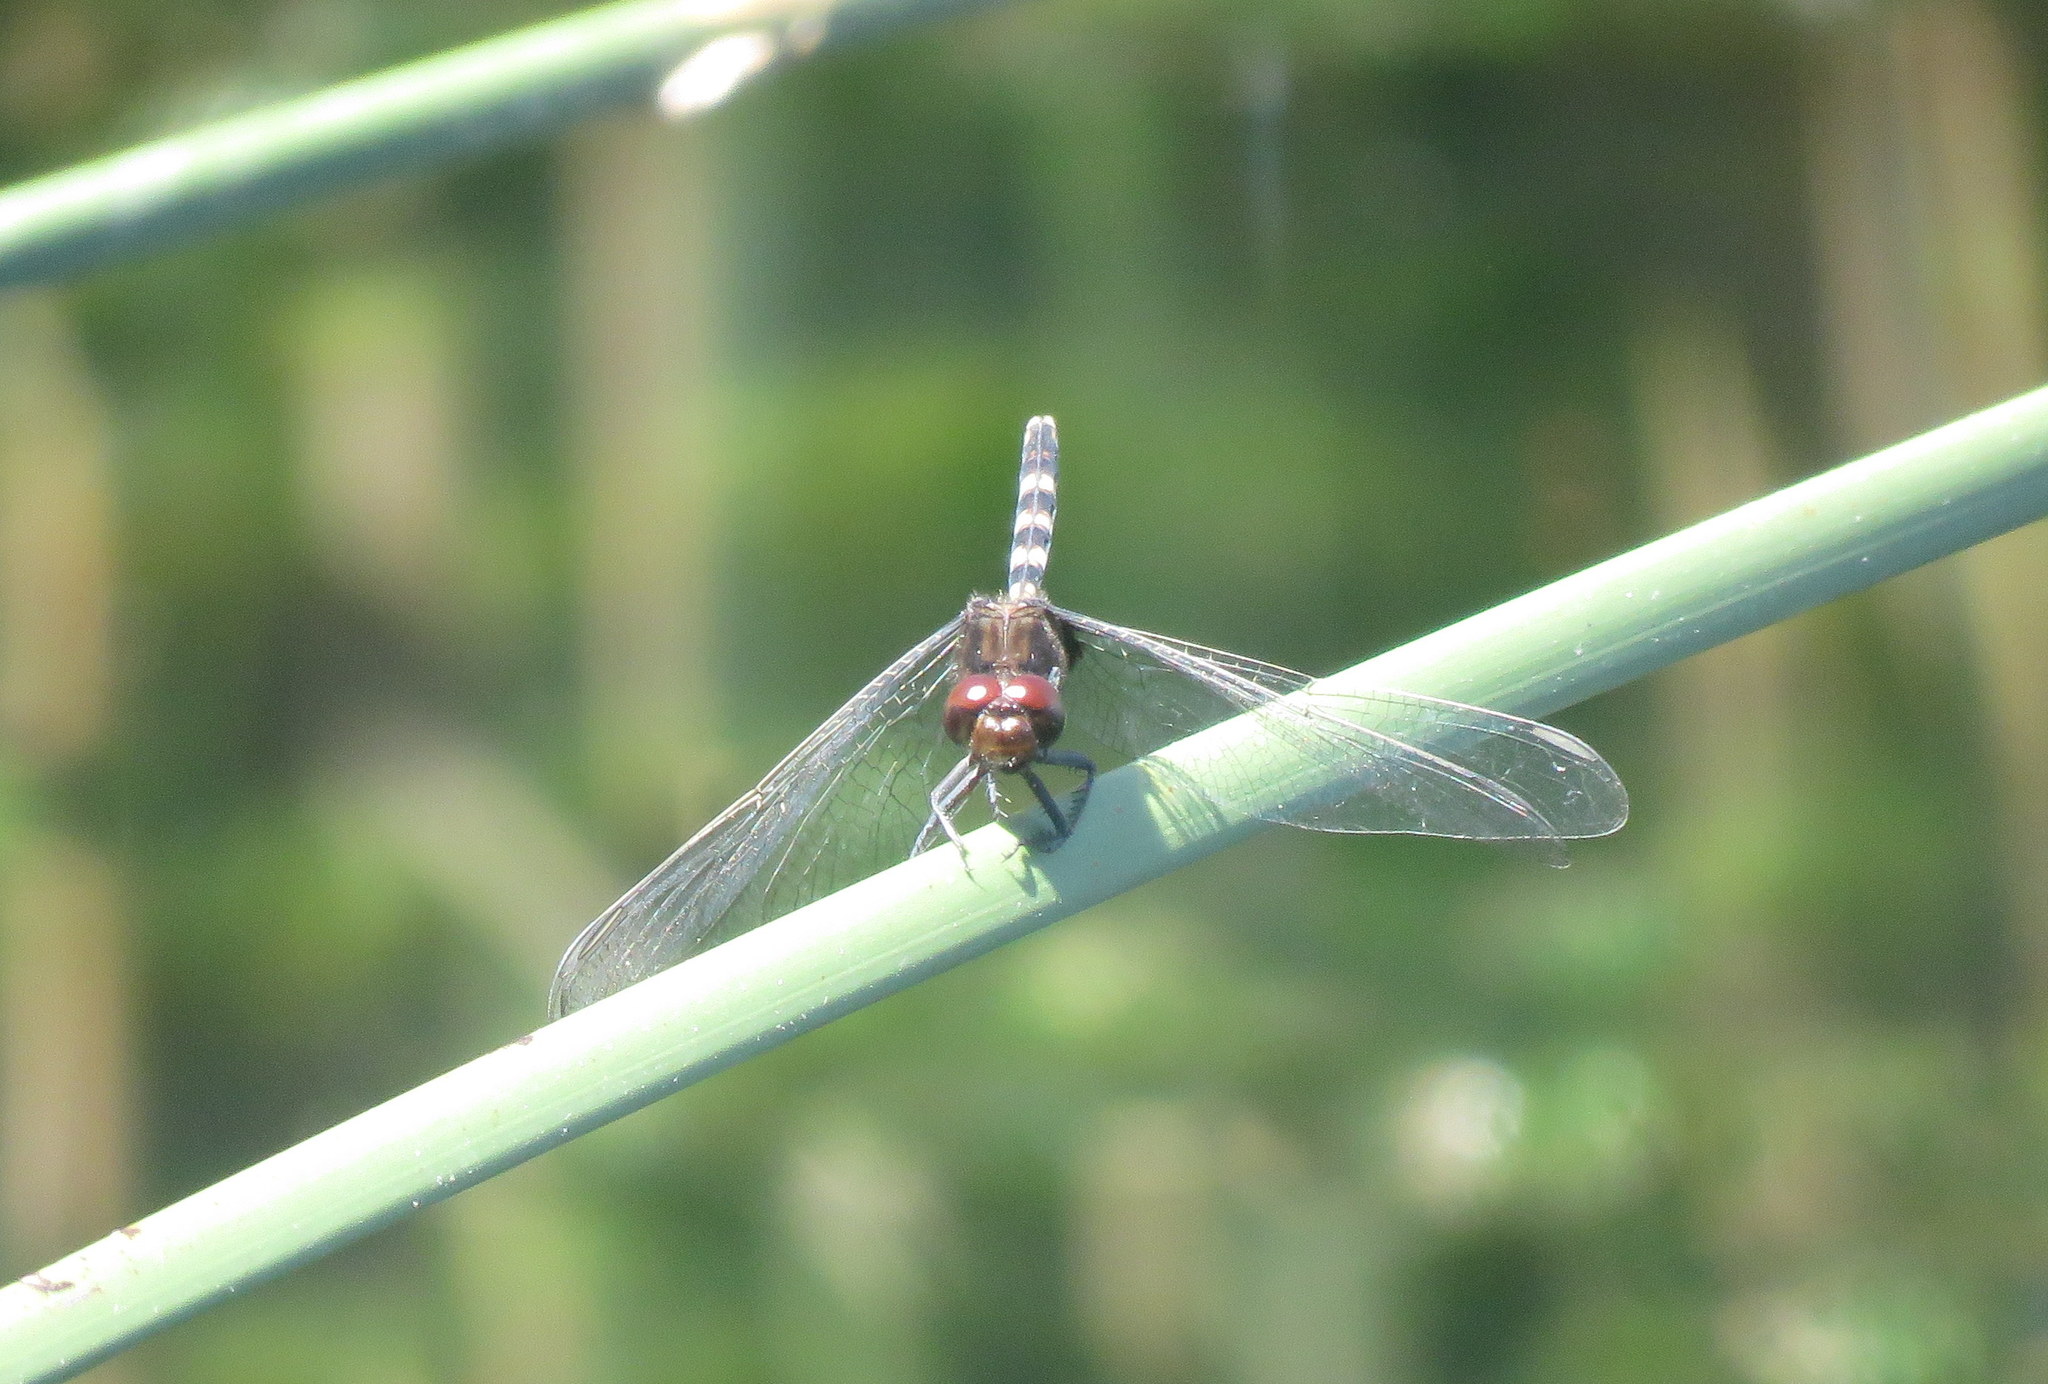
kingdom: Animalia
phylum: Arthropoda
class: Insecta
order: Odonata
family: Libellulidae
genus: Erythemis
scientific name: Erythemis plebeja
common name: Pin-tailed pondhawk
